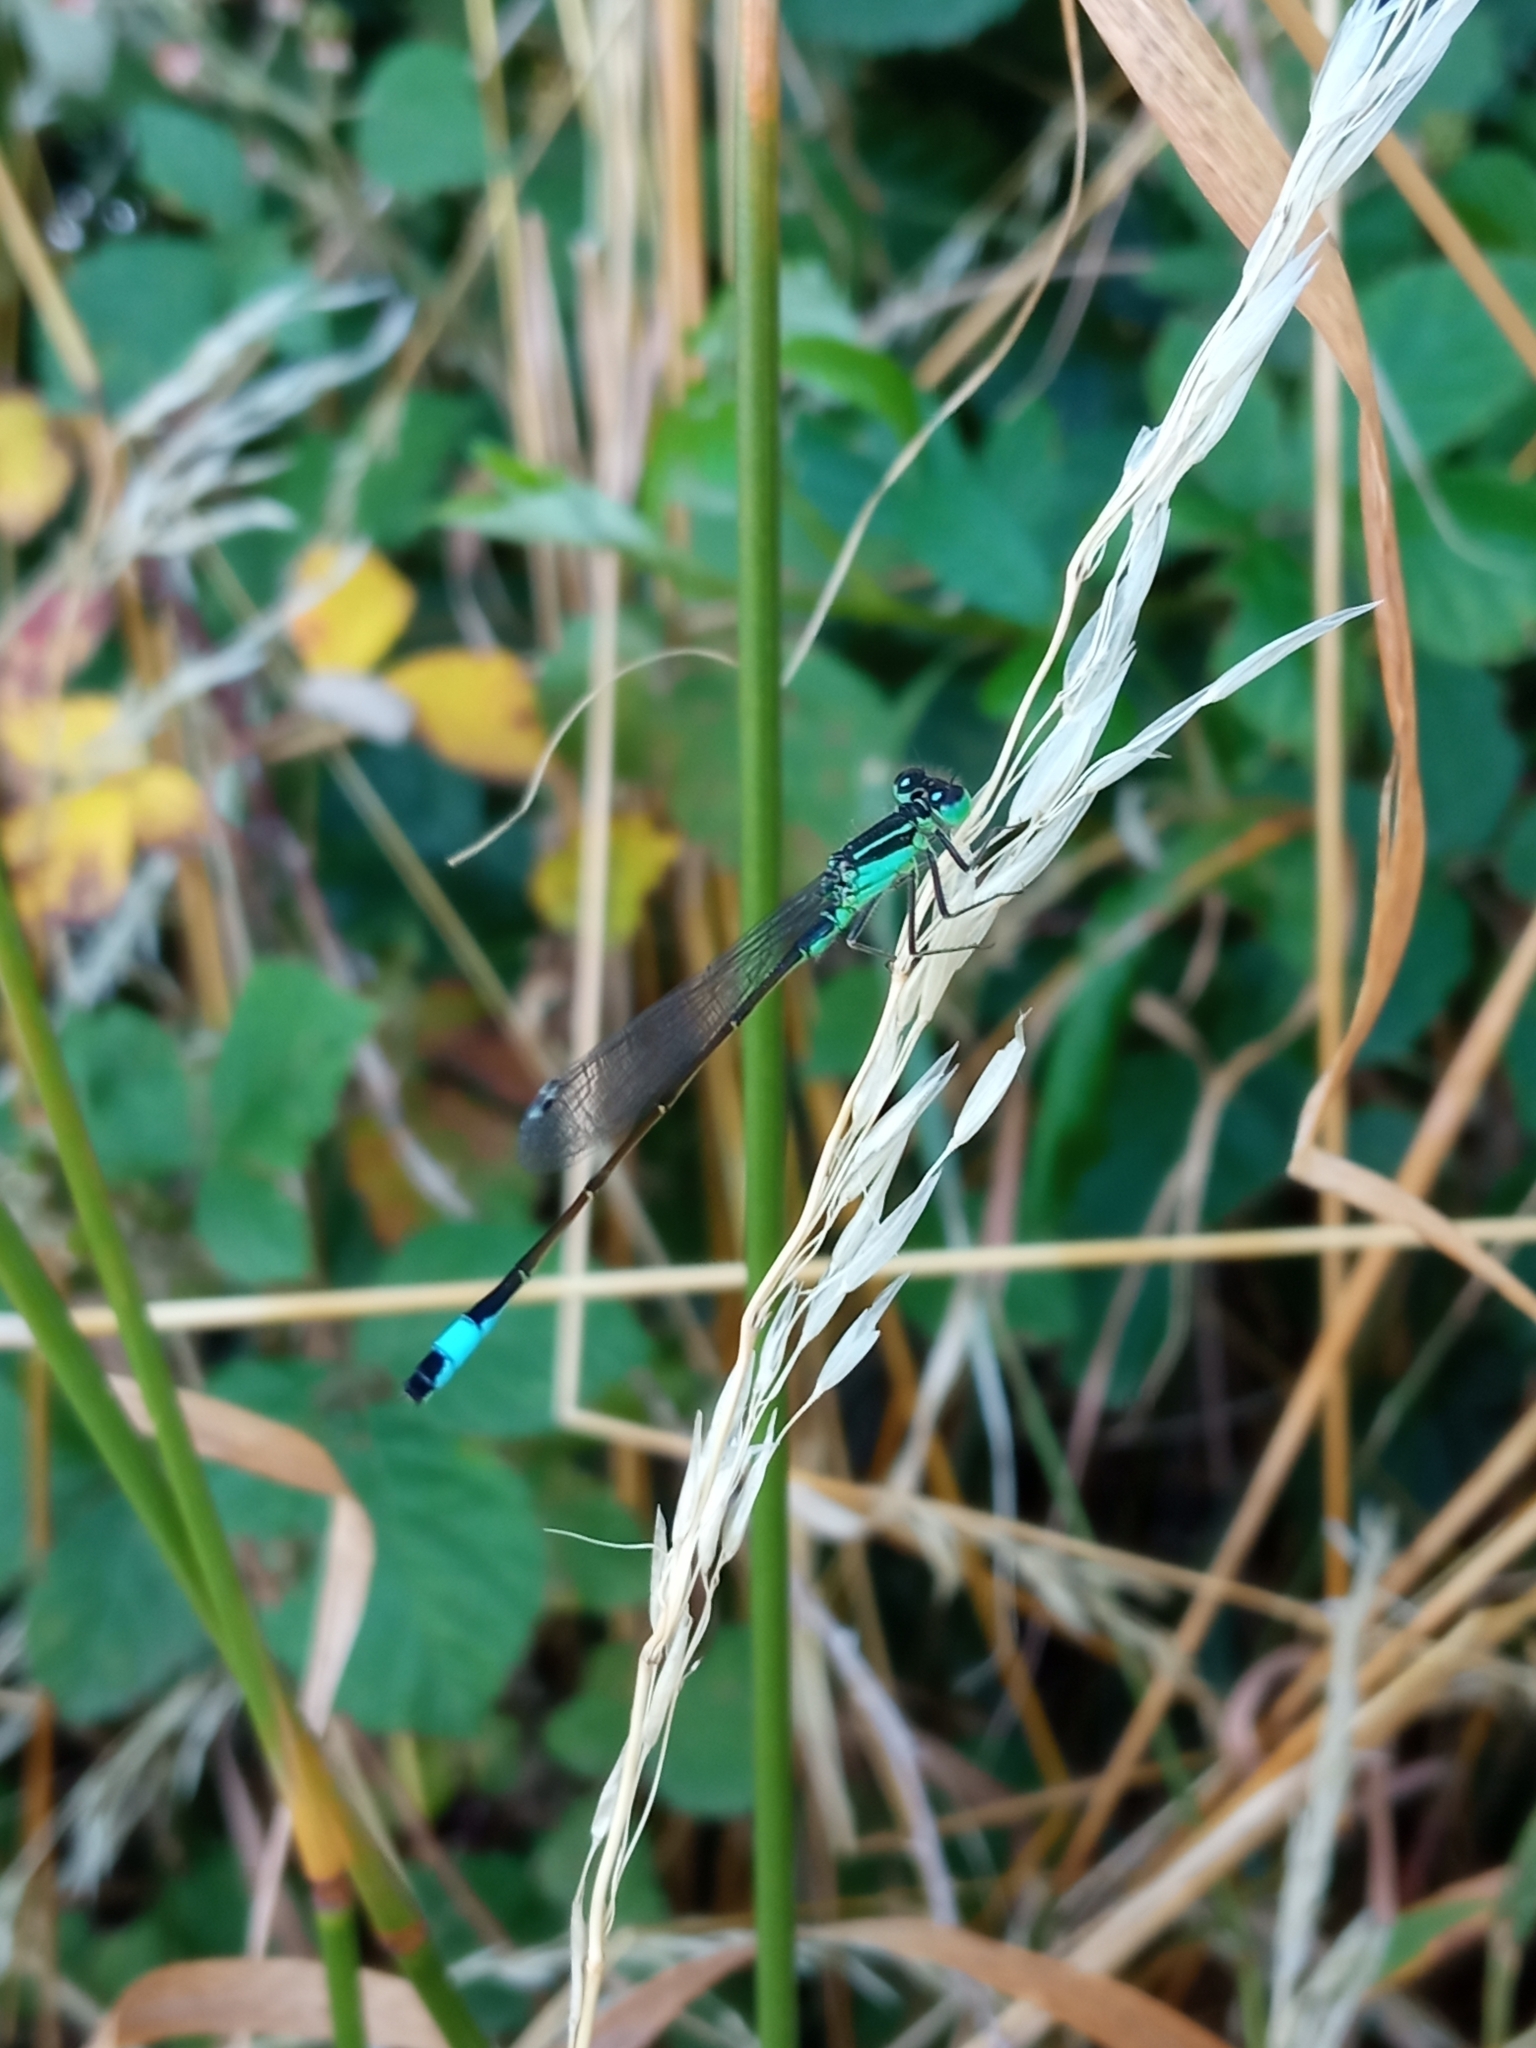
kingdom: Animalia
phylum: Arthropoda
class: Insecta
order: Odonata
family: Coenagrionidae
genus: Ischnura
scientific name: Ischnura elegans
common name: Blue-tailed damselfly
